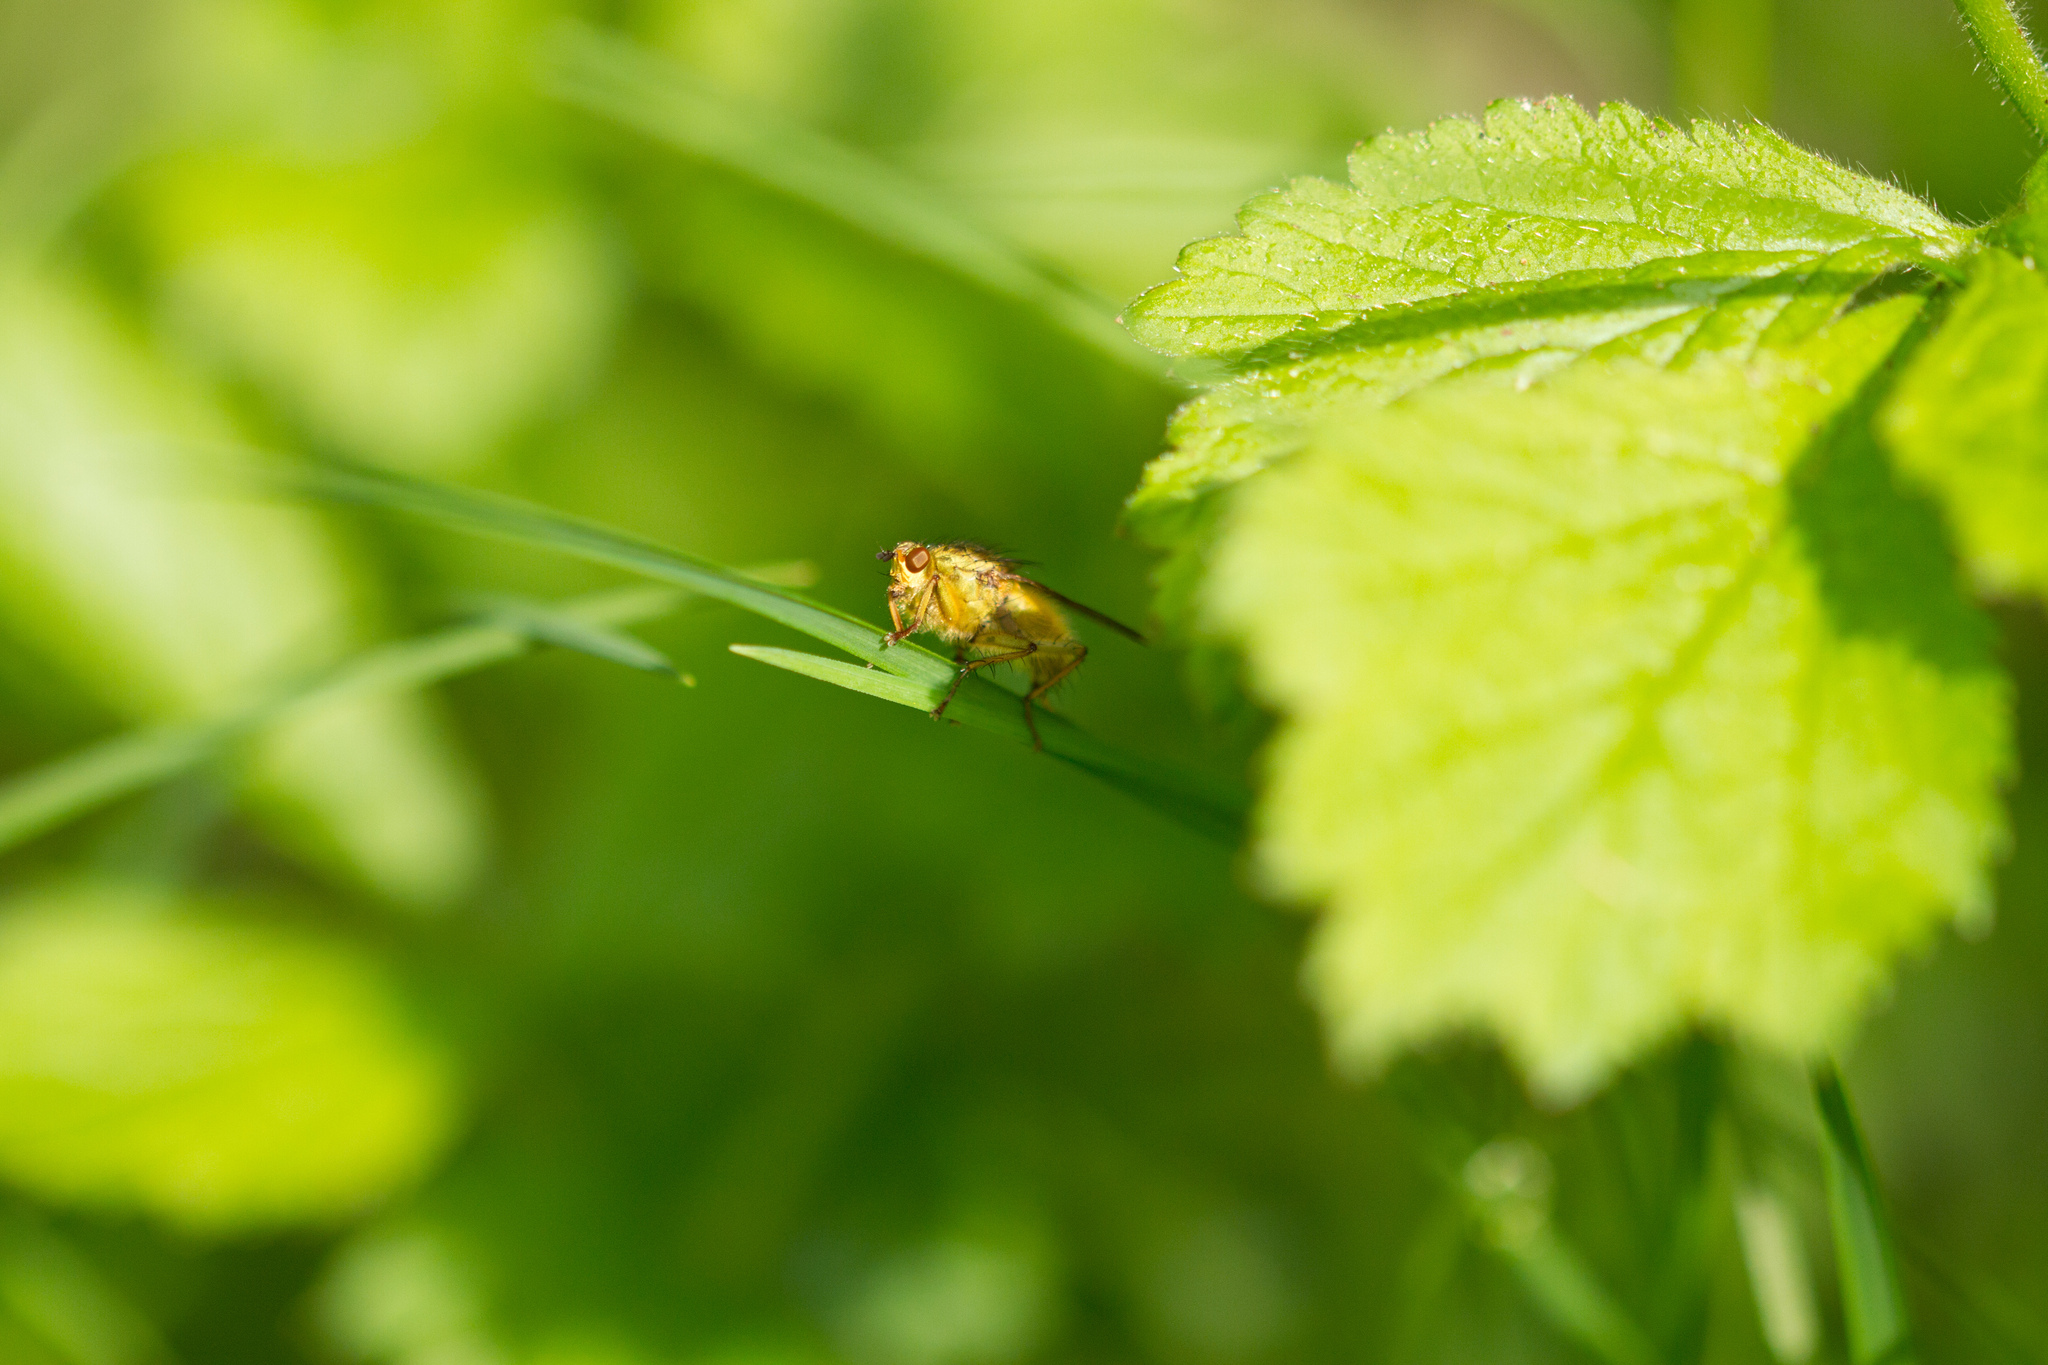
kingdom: Animalia
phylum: Arthropoda
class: Insecta
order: Diptera
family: Scathophagidae
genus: Scathophaga
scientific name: Scathophaga stercoraria
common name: Yellow dung fly
